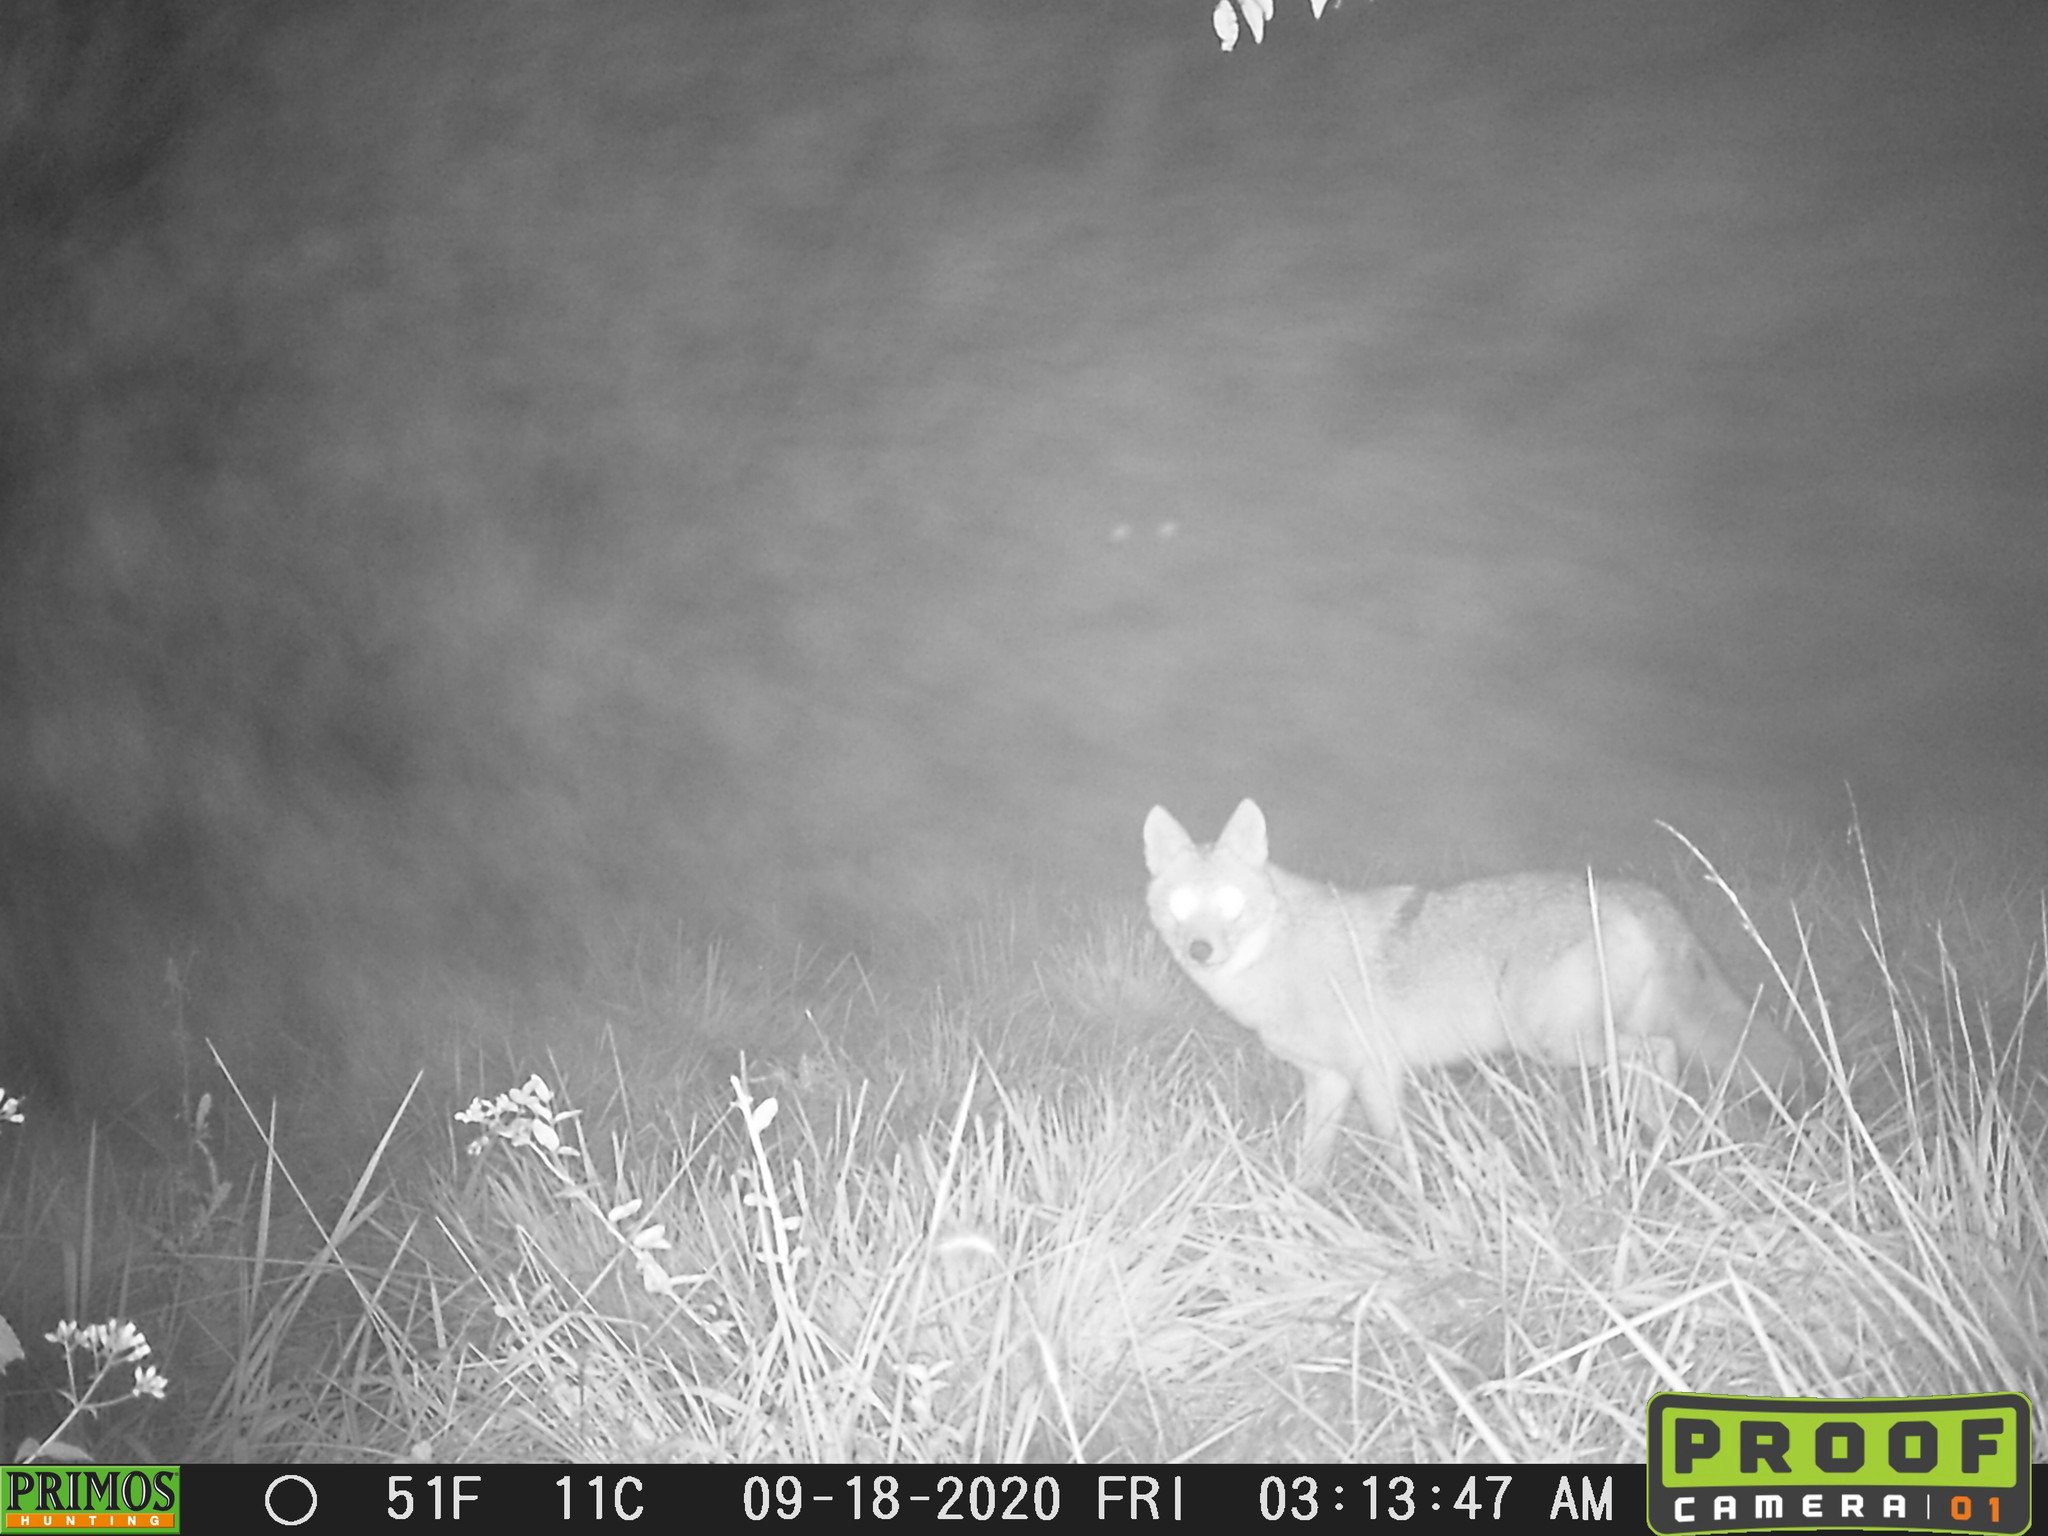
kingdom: Animalia
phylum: Chordata
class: Mammalia
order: Carnivora
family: Canidae
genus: Canis
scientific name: Canis latrans
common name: Coyote
